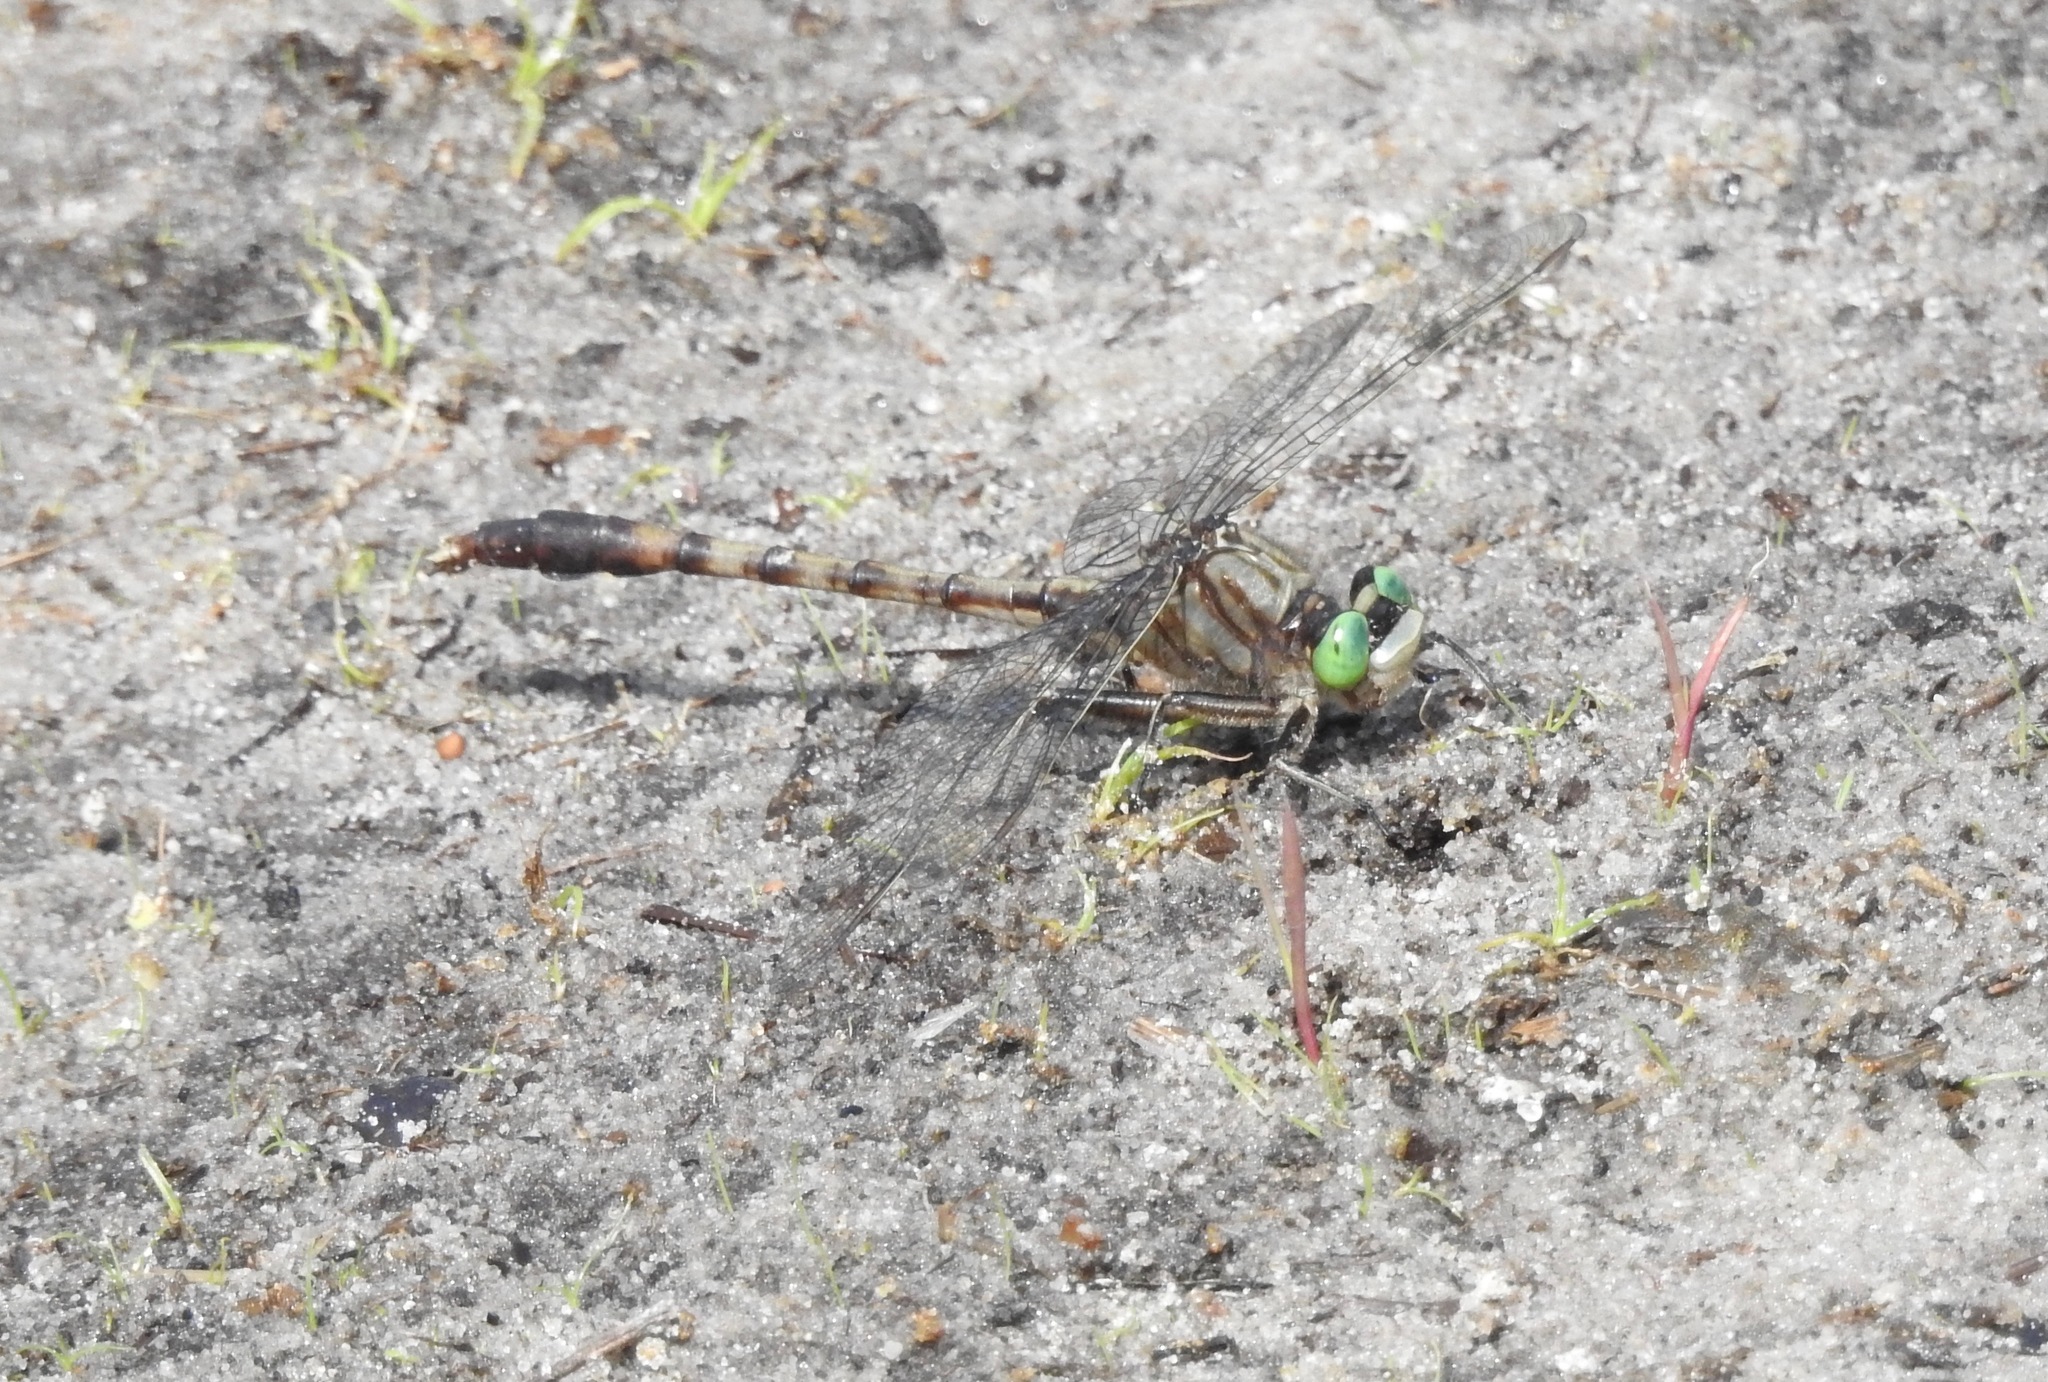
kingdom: Animalia
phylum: Arthropoda
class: Insecta
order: Odonata
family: Gomphidae
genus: Arigomphus
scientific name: Arigomphus pallidus
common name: Gray-green clubtail
